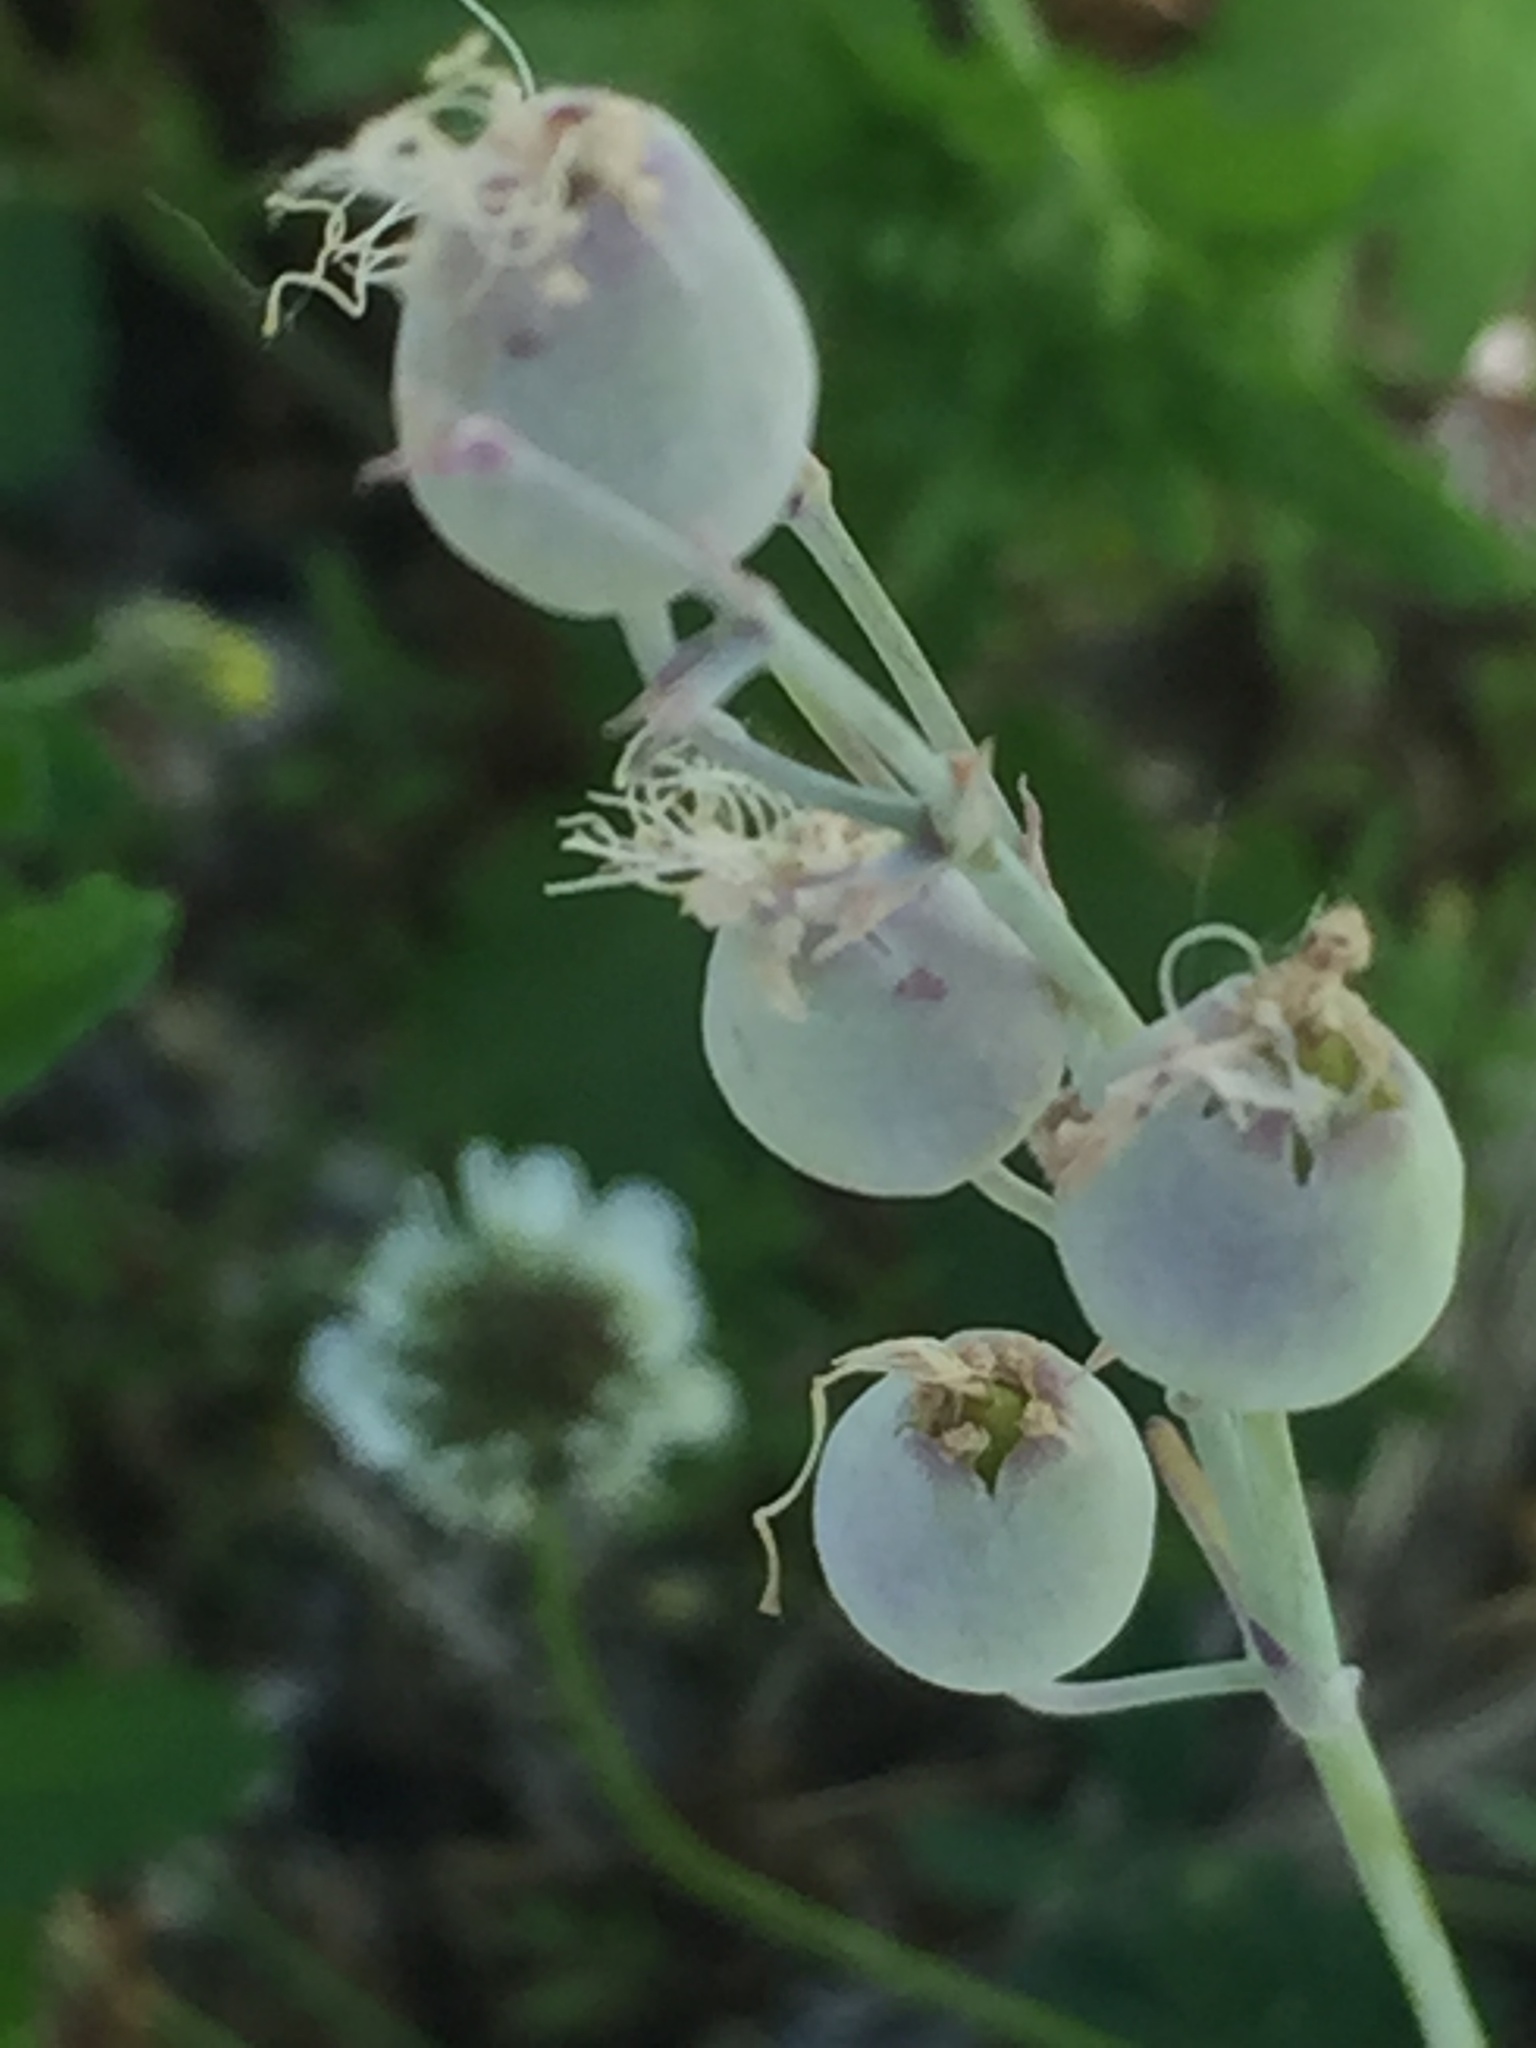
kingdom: Plantae
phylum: Tracheophyta
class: Magnoliopsida
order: Caryophyllales
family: Caryophyllaceae
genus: Silene
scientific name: Silene csereii
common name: Balkan catchfly
